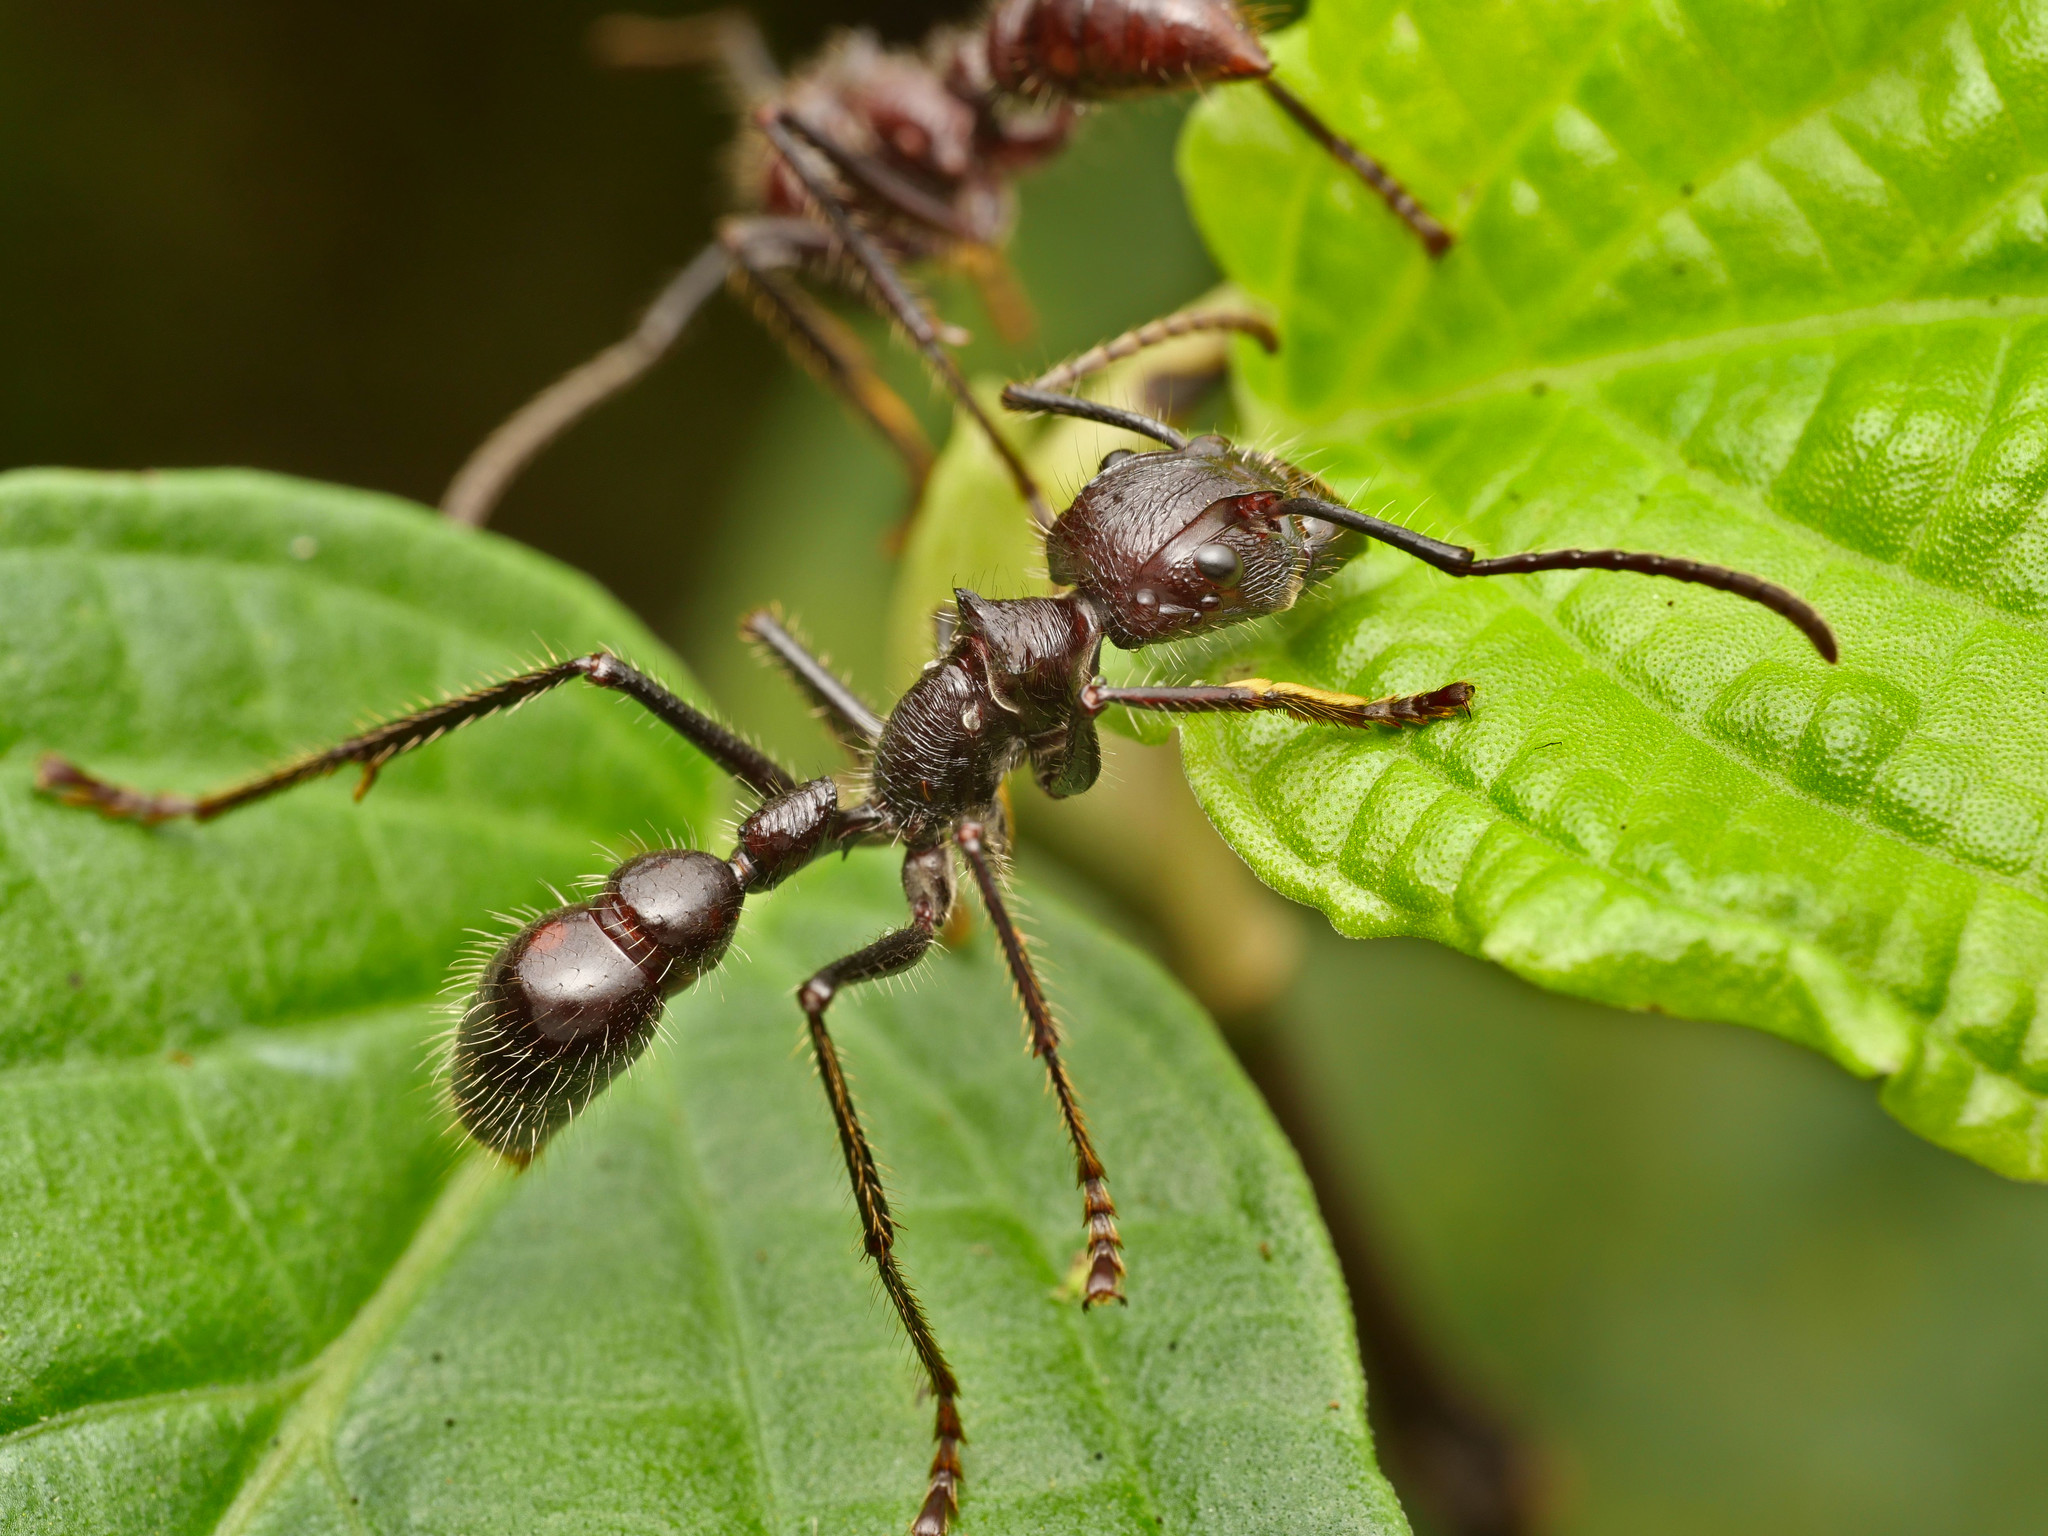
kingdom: Animalia
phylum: Arthropoda
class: Insecta
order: Hymenoptera
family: Formicidae
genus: Paraponera
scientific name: Paraponera clavata
